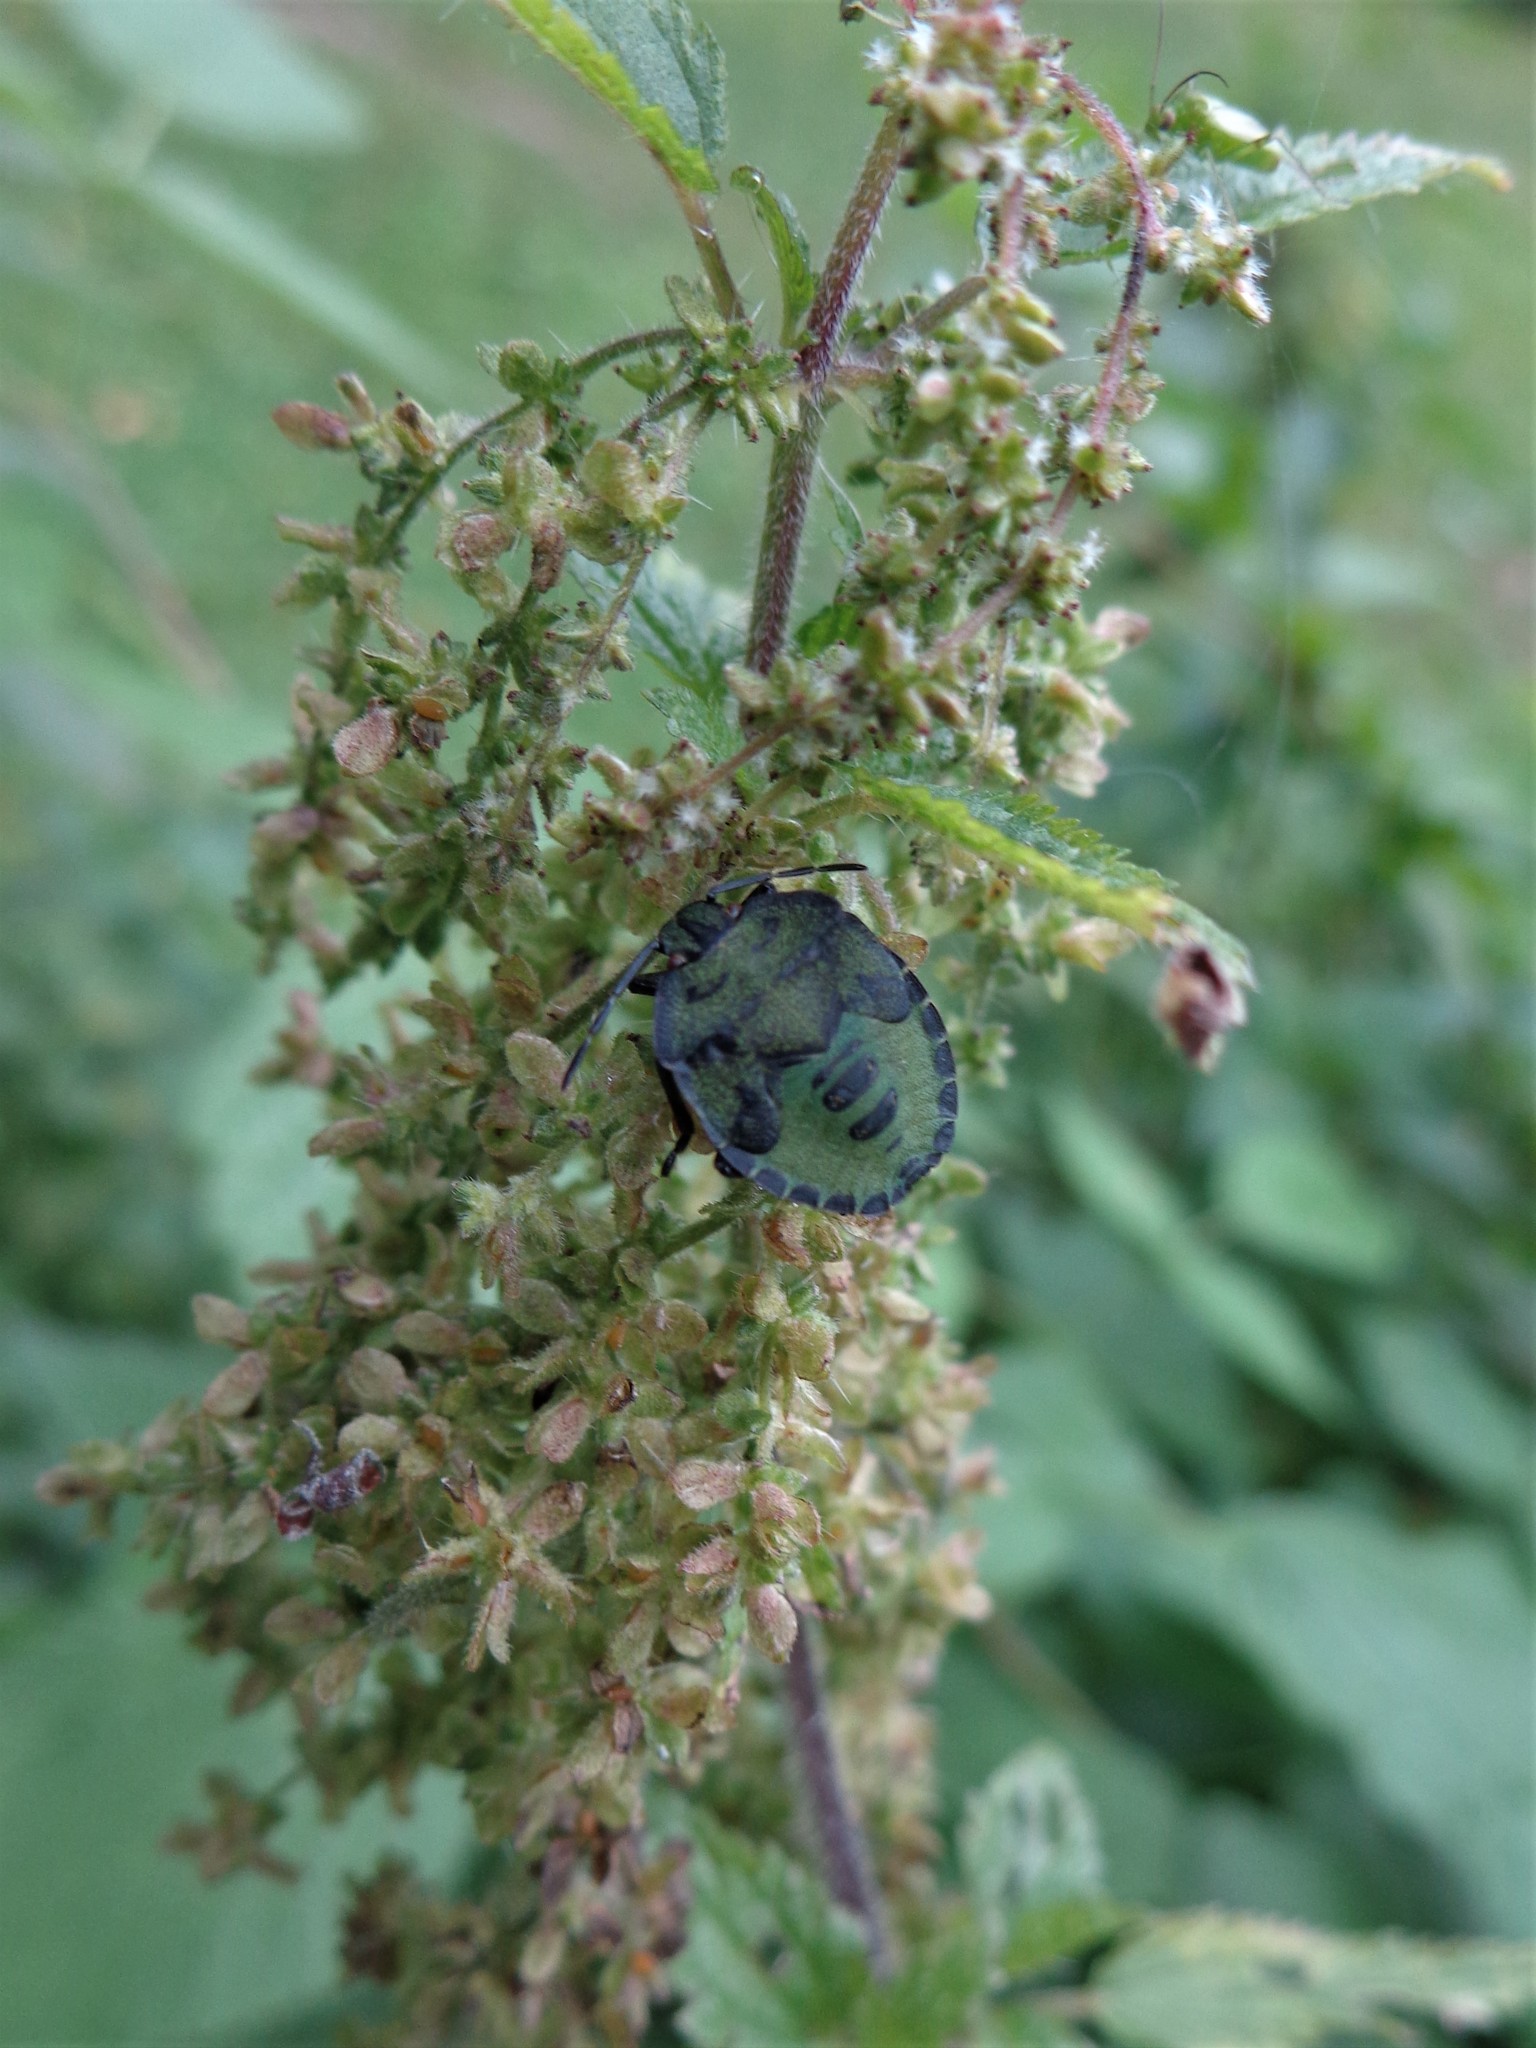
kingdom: Animalia
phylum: Arthropoda
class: Insecta
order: Hemiptera
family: Pentatomidae
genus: Palomena
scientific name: Palomena prasina
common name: Green shieldbug
